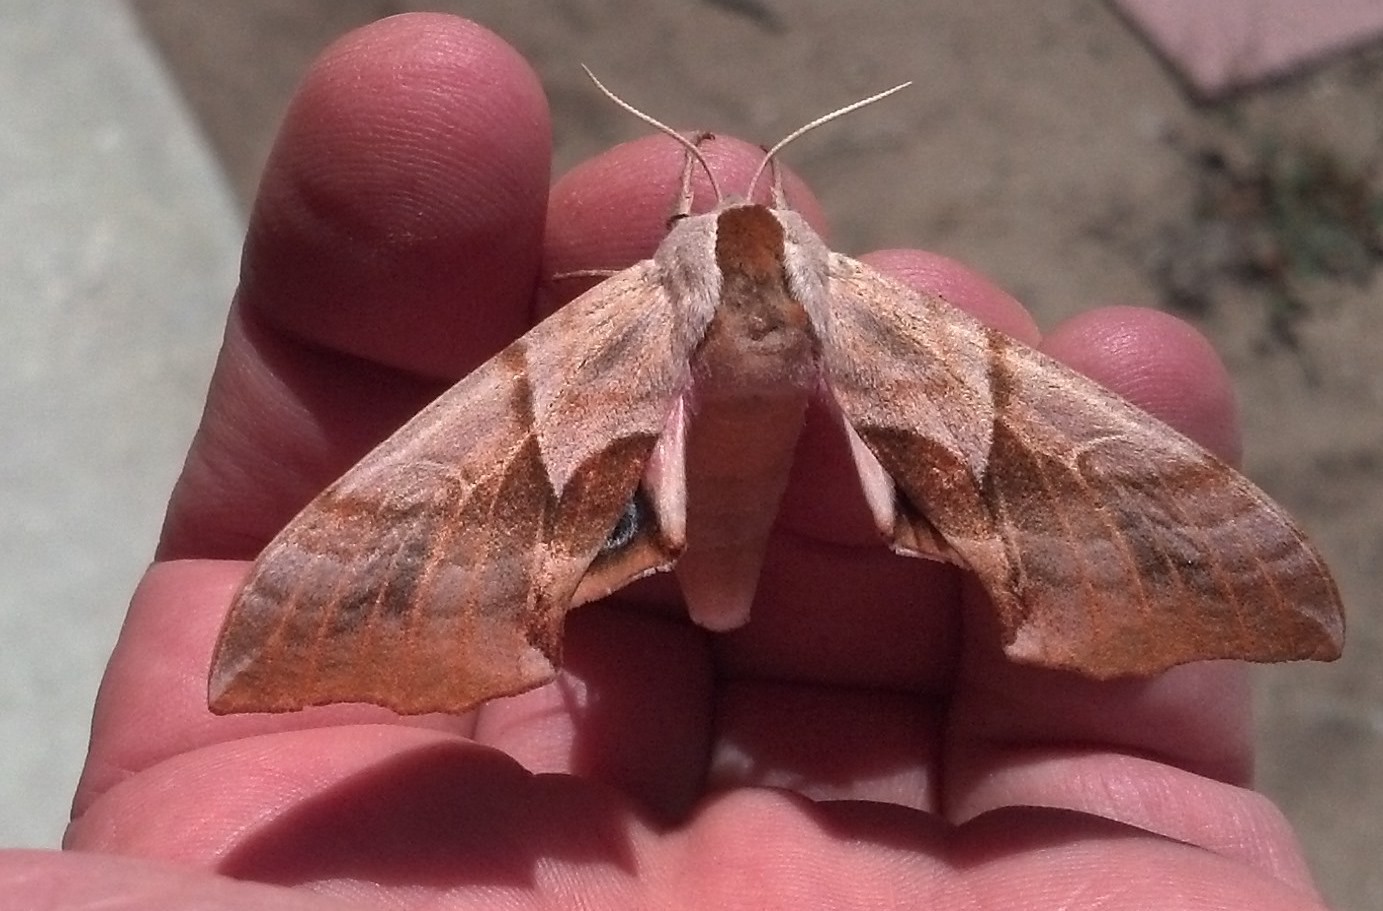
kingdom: Animalia
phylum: Arthropoda
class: Insecta
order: Lepidoptera
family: Sphingidae
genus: Smerinthus
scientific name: Smerinthus cerisyi
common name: Cerisy's sphinx moth
